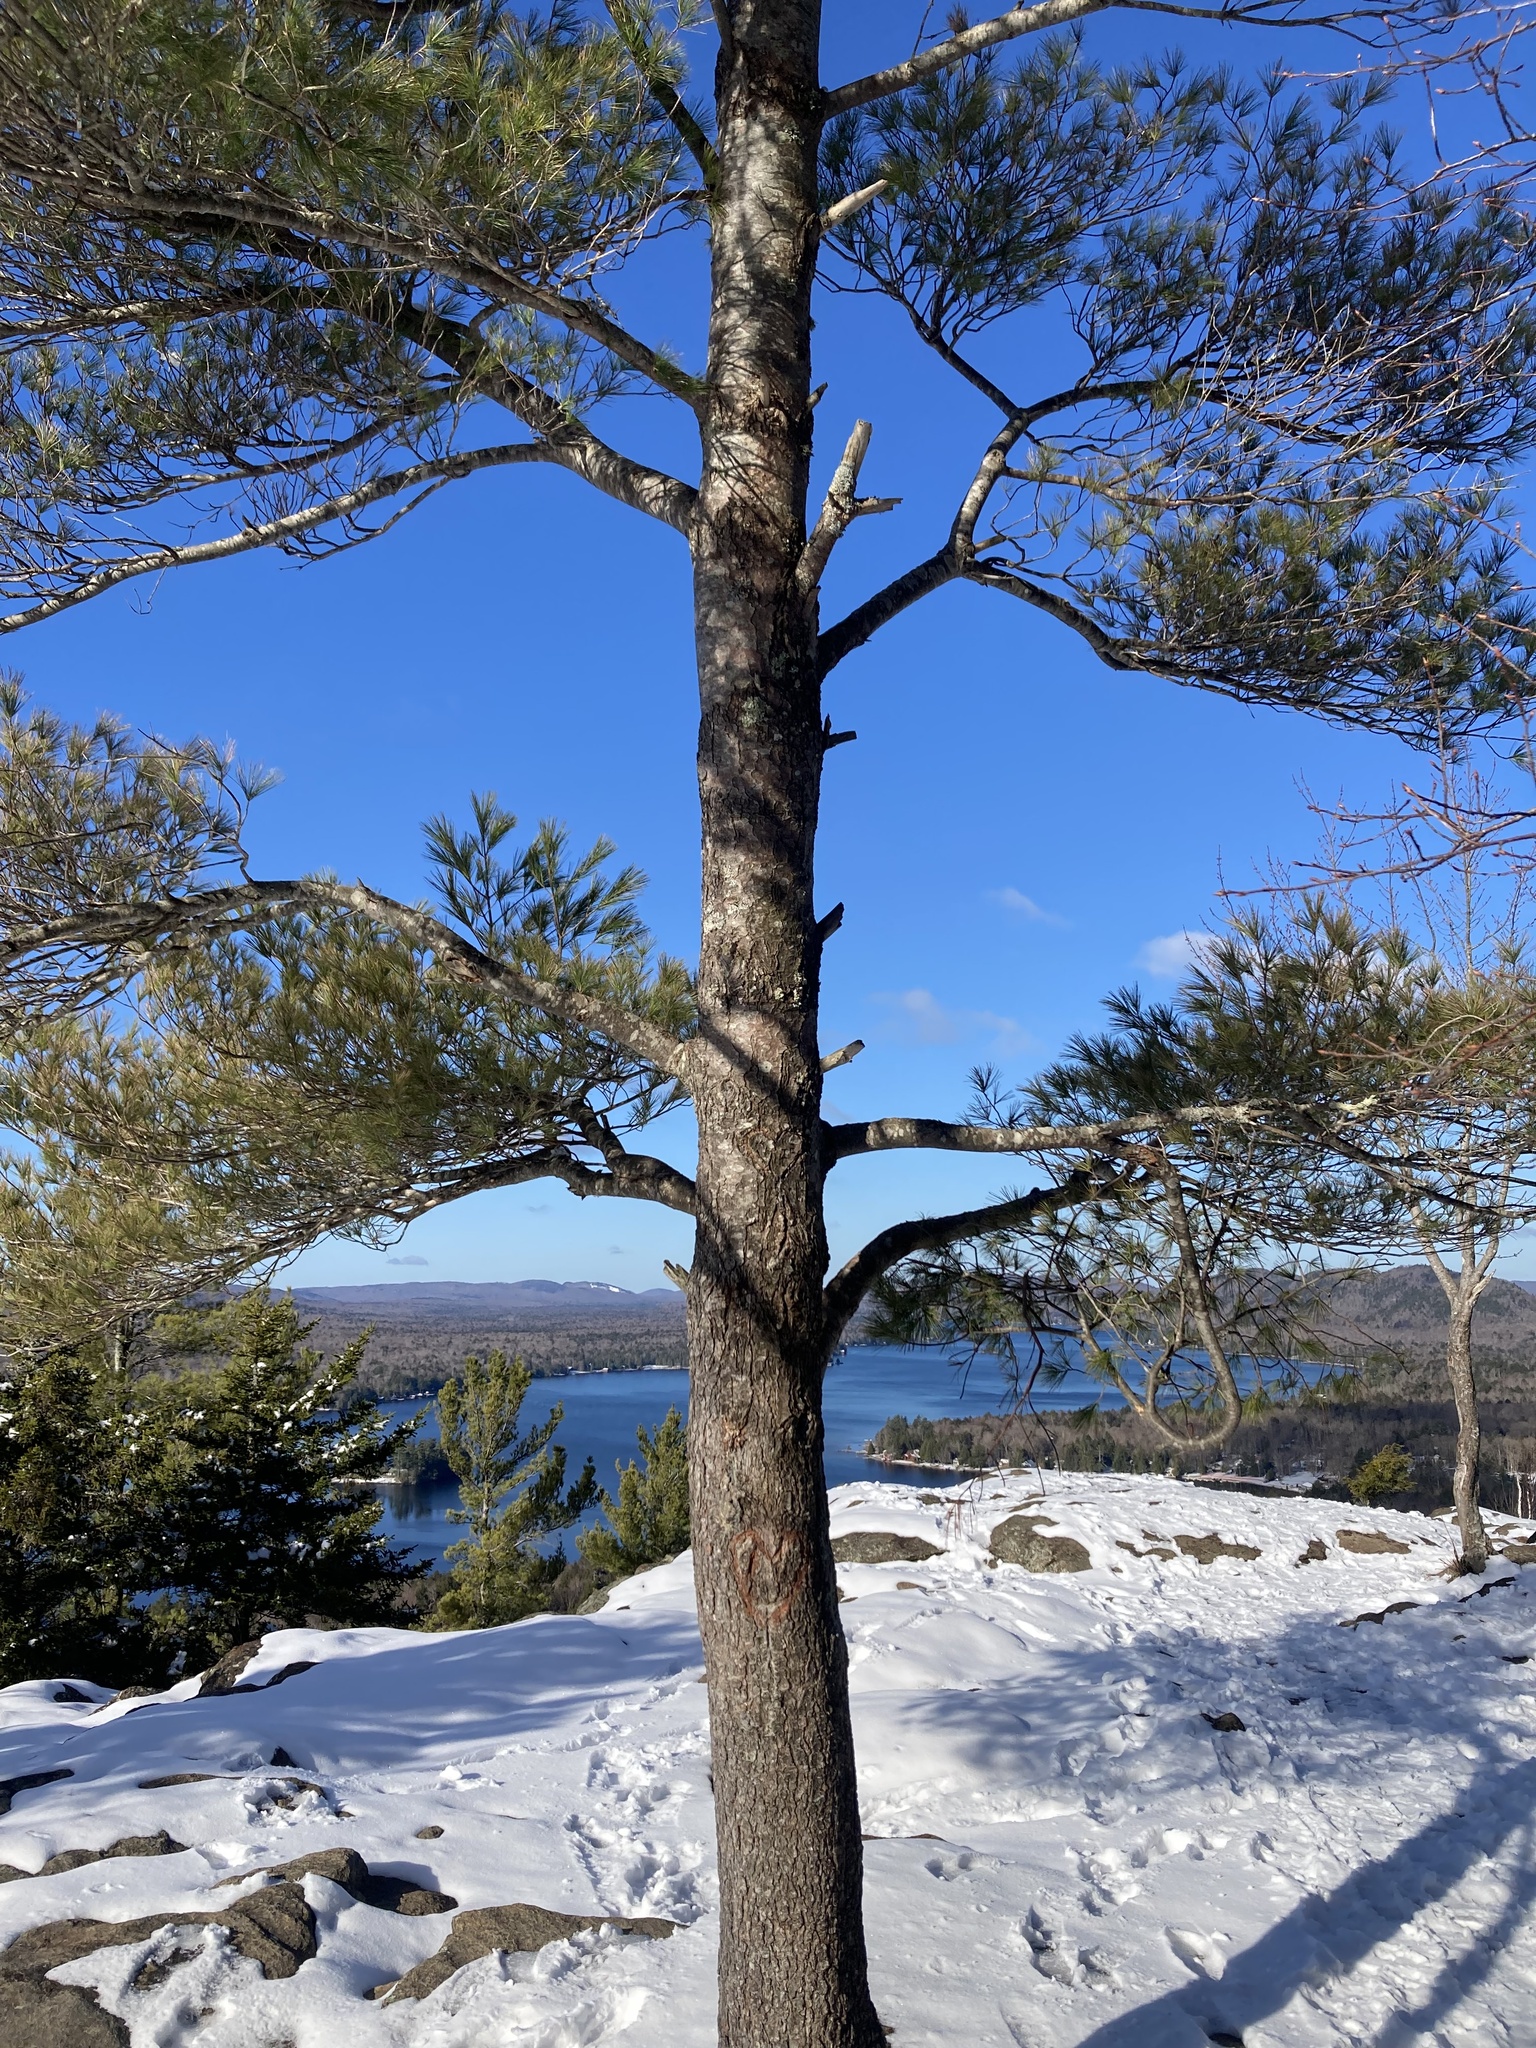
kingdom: Plantae
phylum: Tracheophyta
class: Pinopsida
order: Pinales
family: Pinaceae
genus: Pinus
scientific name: Pinus strobus
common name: Weymouth pine
